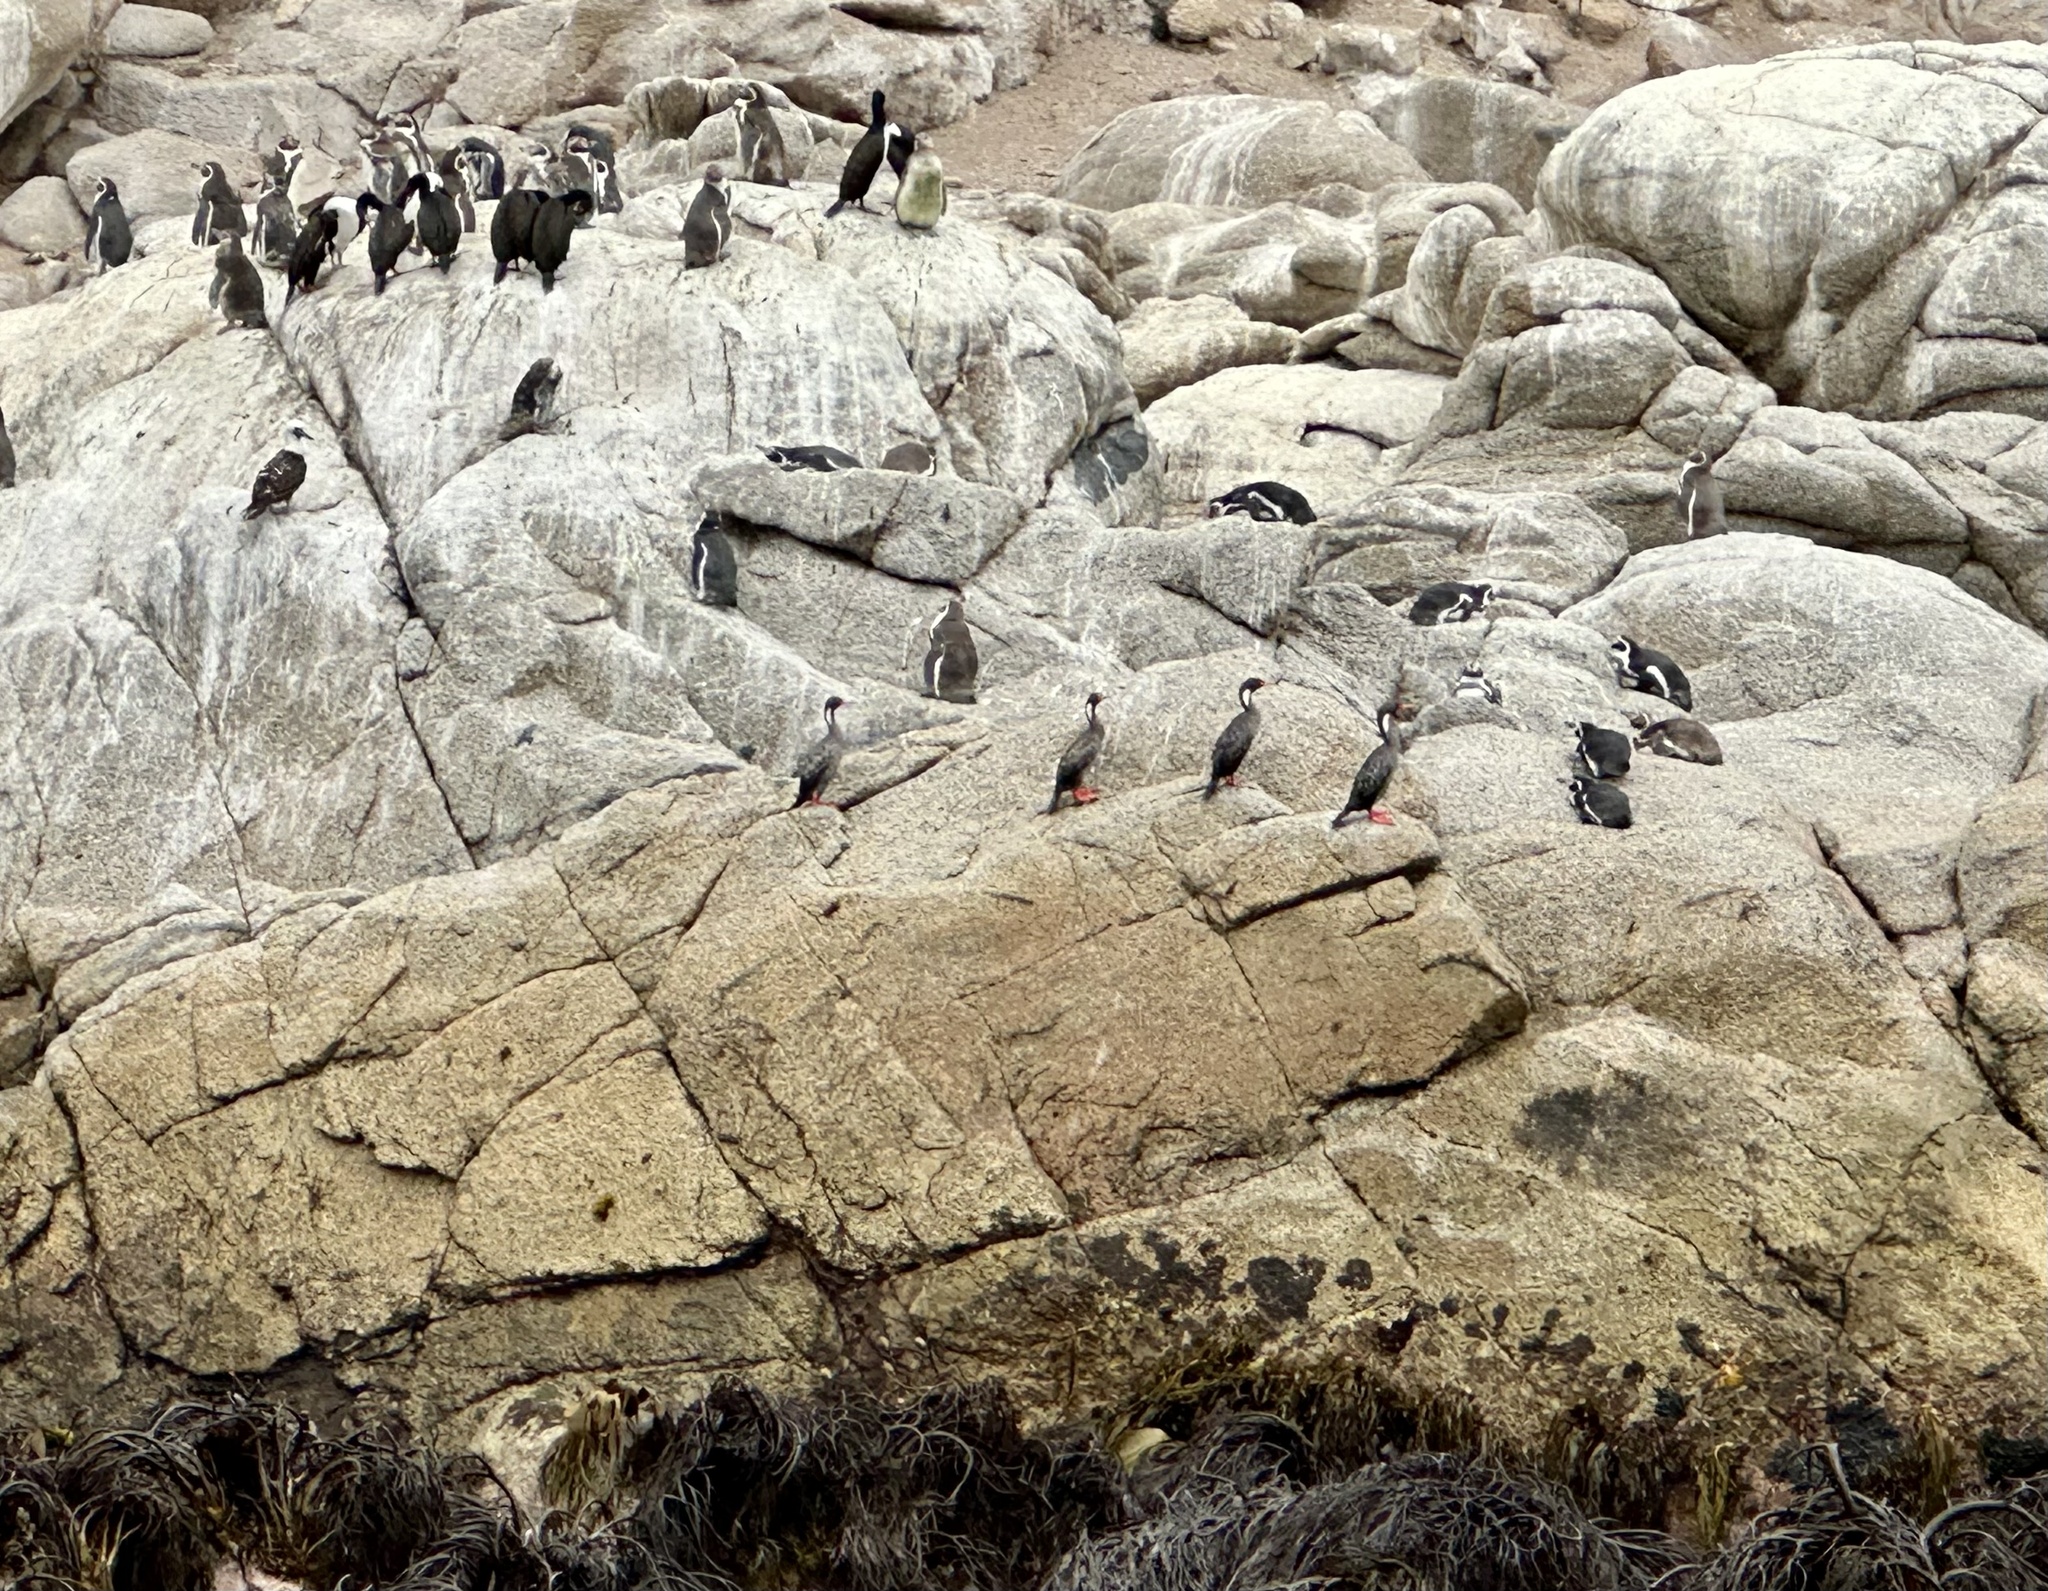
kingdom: Animalia
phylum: Chordata
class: Aves
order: Suliformes
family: Phalacrocoracidae
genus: Phalacrocorax
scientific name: Phalacrocorax gaimardi
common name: Red-legged cormorant
